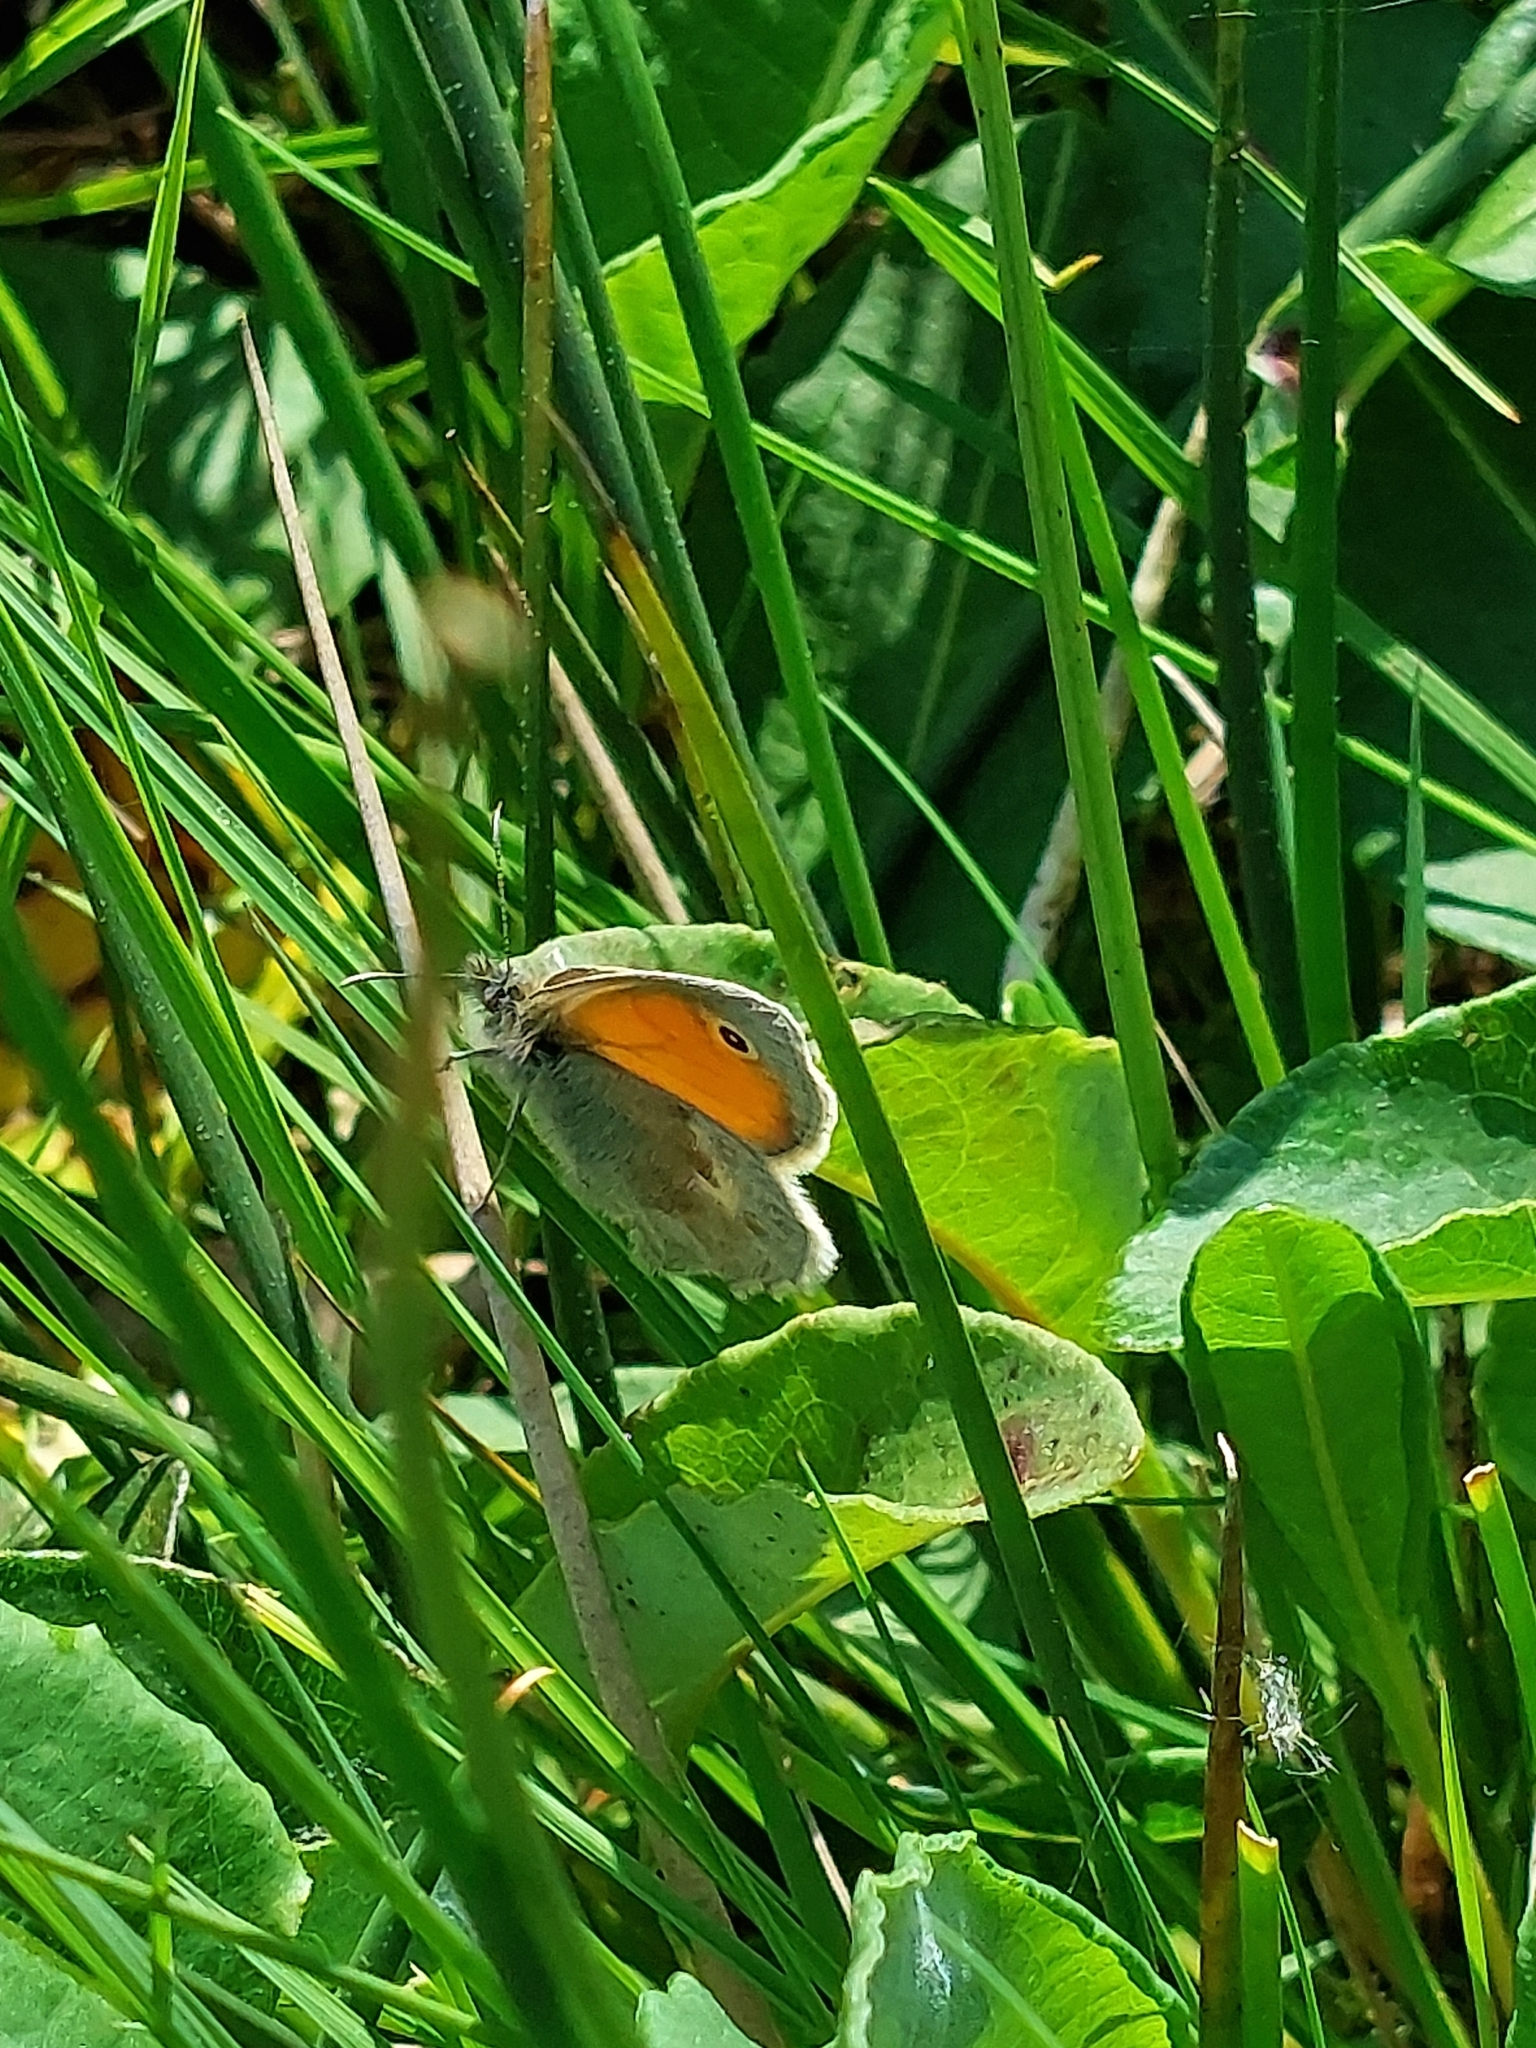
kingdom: Animalia
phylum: Arthropoda
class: Insecta
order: Lepidoptera
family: Nymphalidae
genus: Coenonympha
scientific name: Coenonympha pamphilus
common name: Small heath
